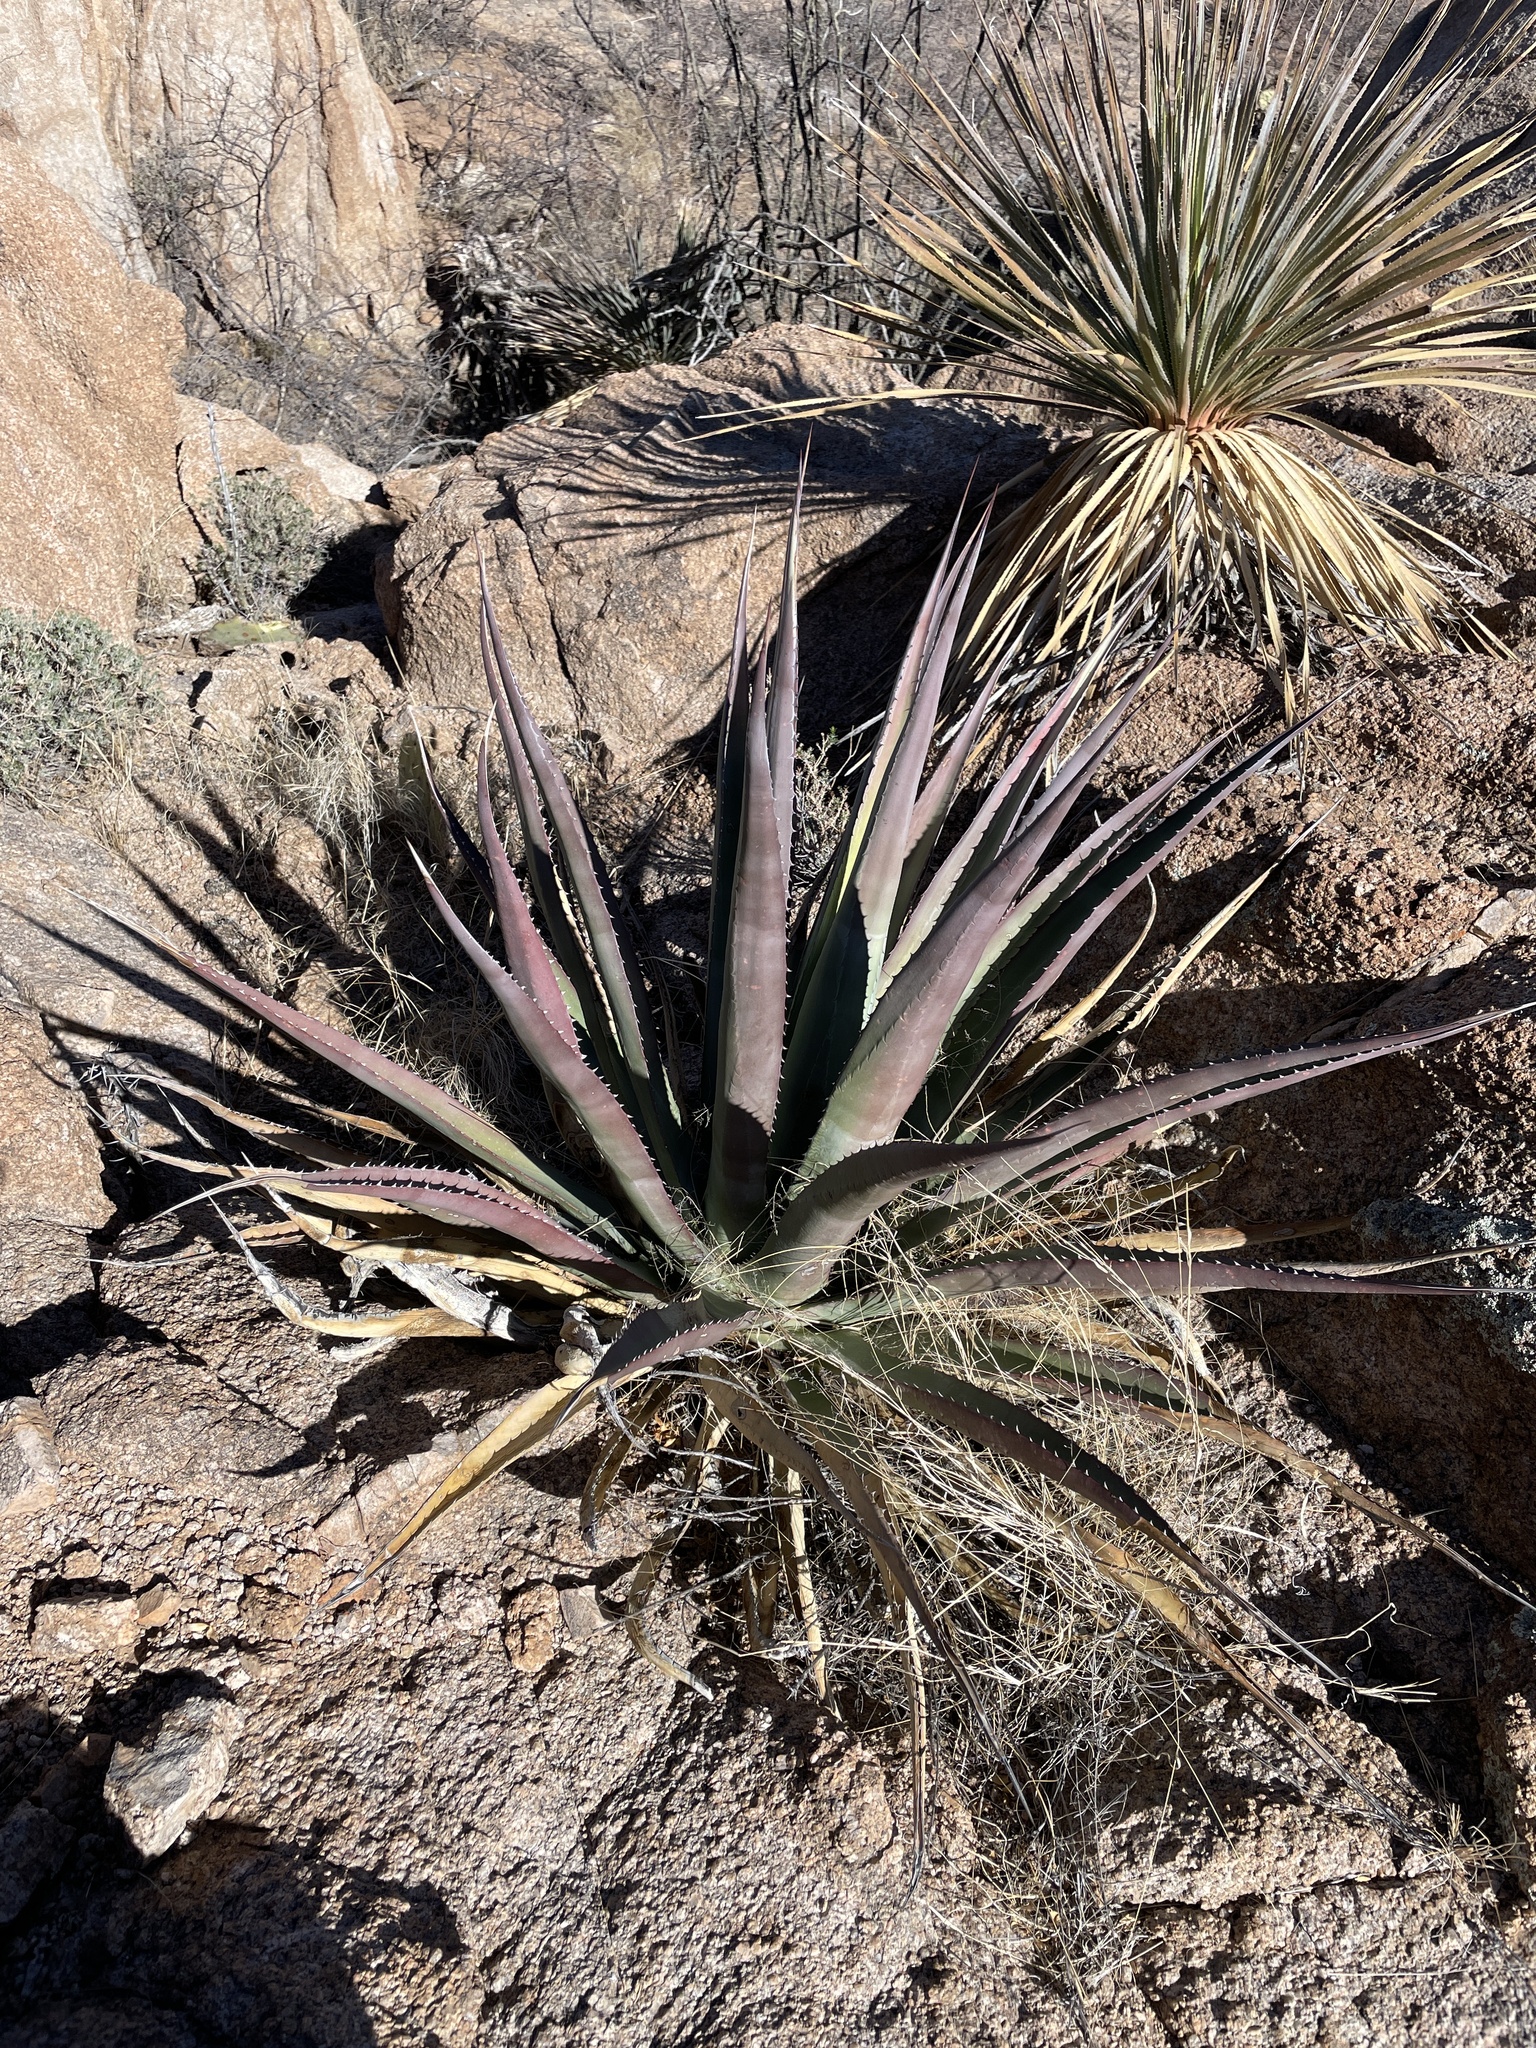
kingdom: Plantae
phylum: Tracheophyta
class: Liliopsida
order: Asparagales
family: Asparagaceae
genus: Agave
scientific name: Agave palmeri
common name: Palmer agave
